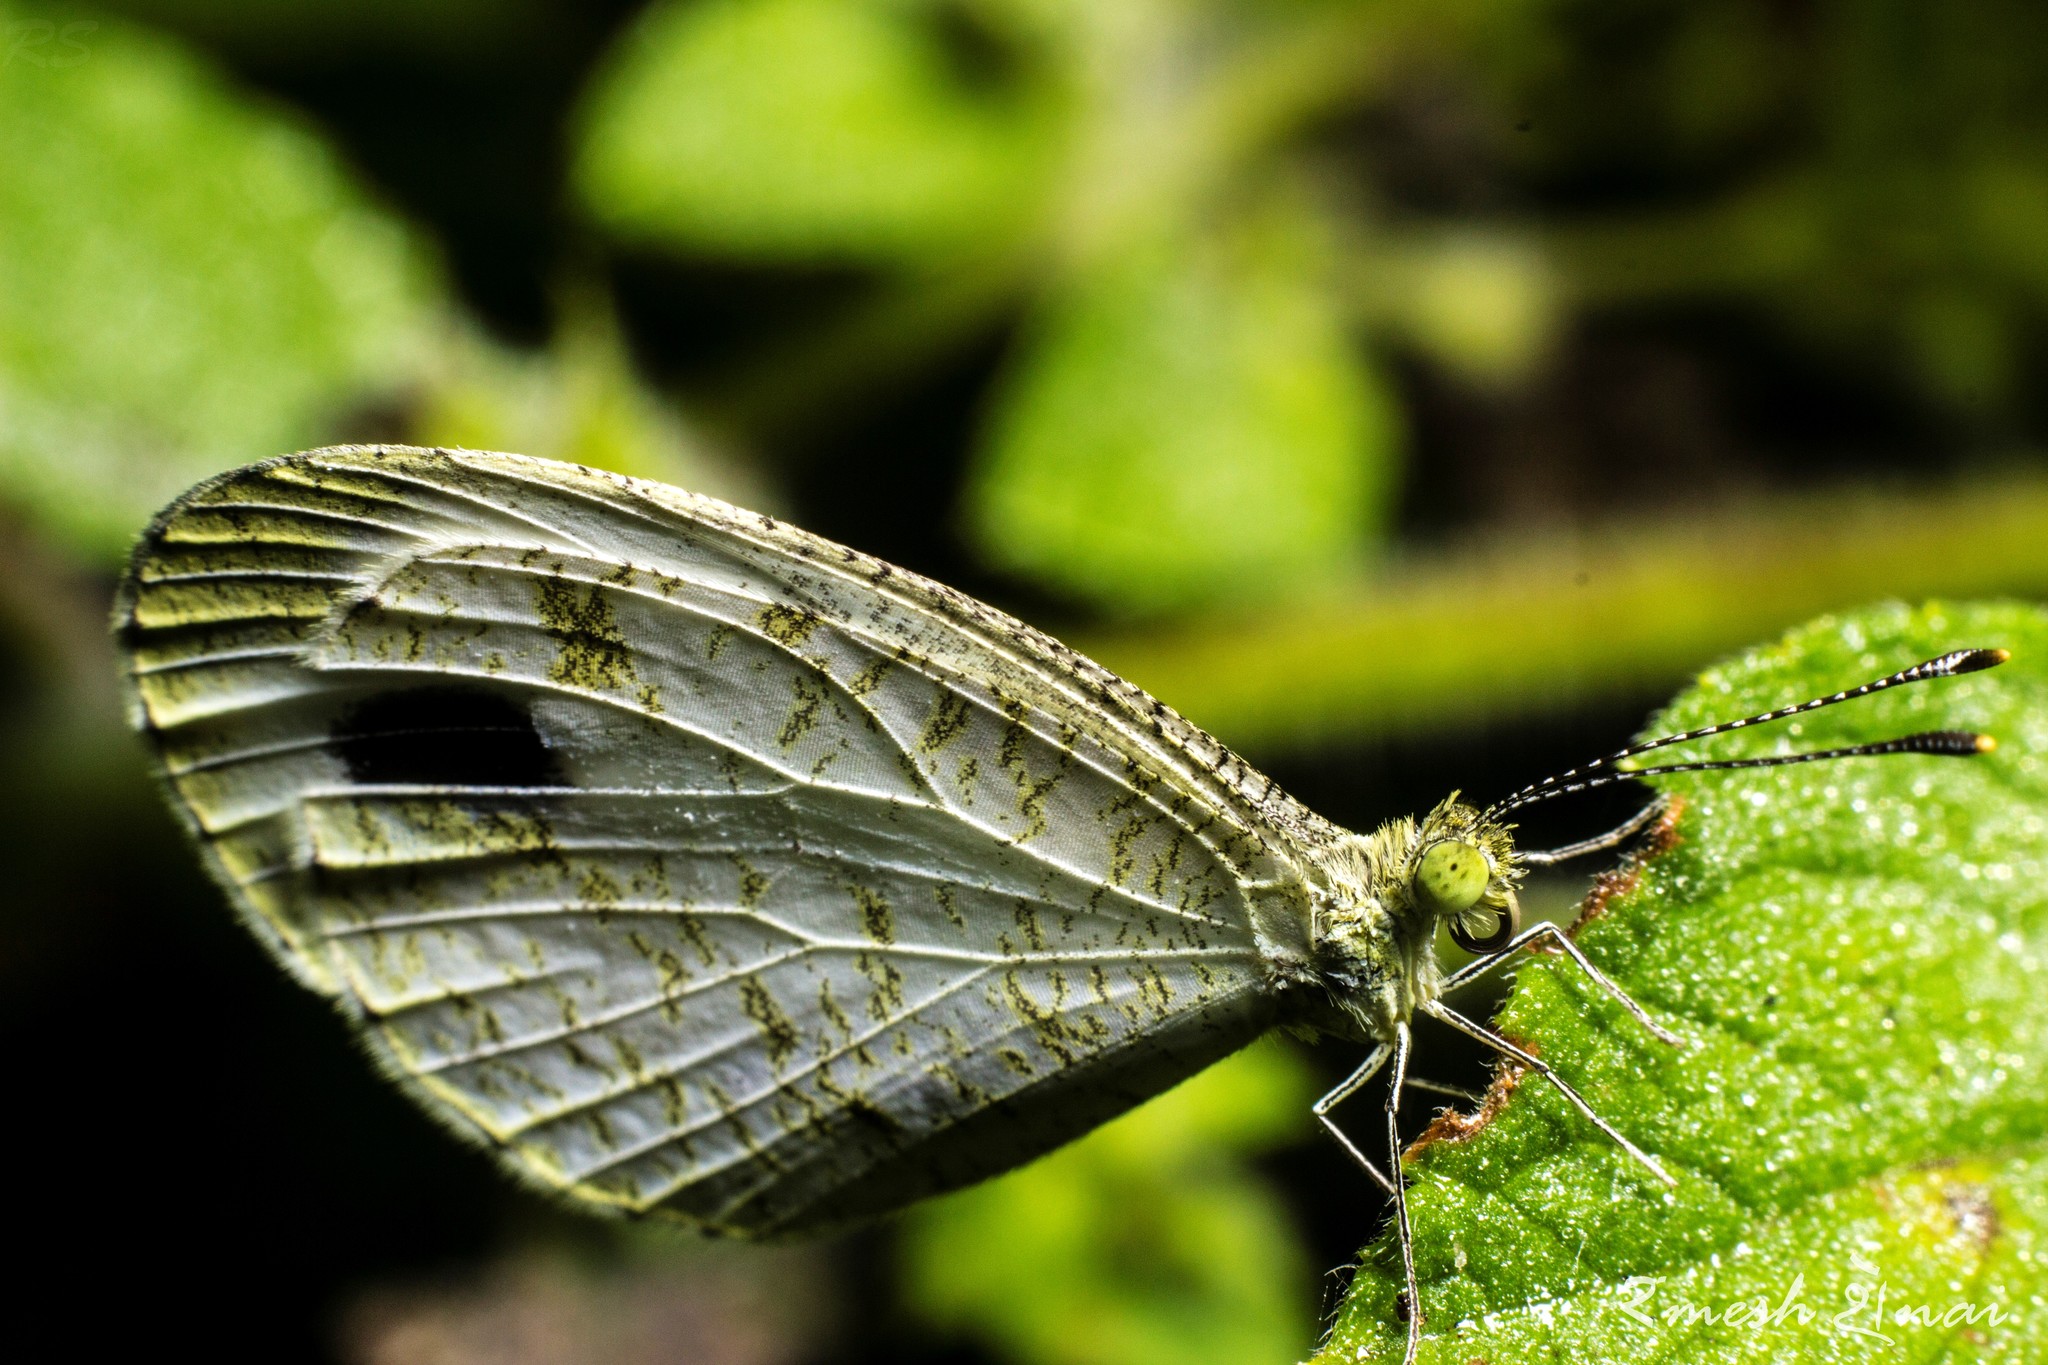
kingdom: Animalia
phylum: Arthropoda
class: Insecta
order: Lepidoptera
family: Pieridae
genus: Leptosia
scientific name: Leptosia nina
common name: Psyche
